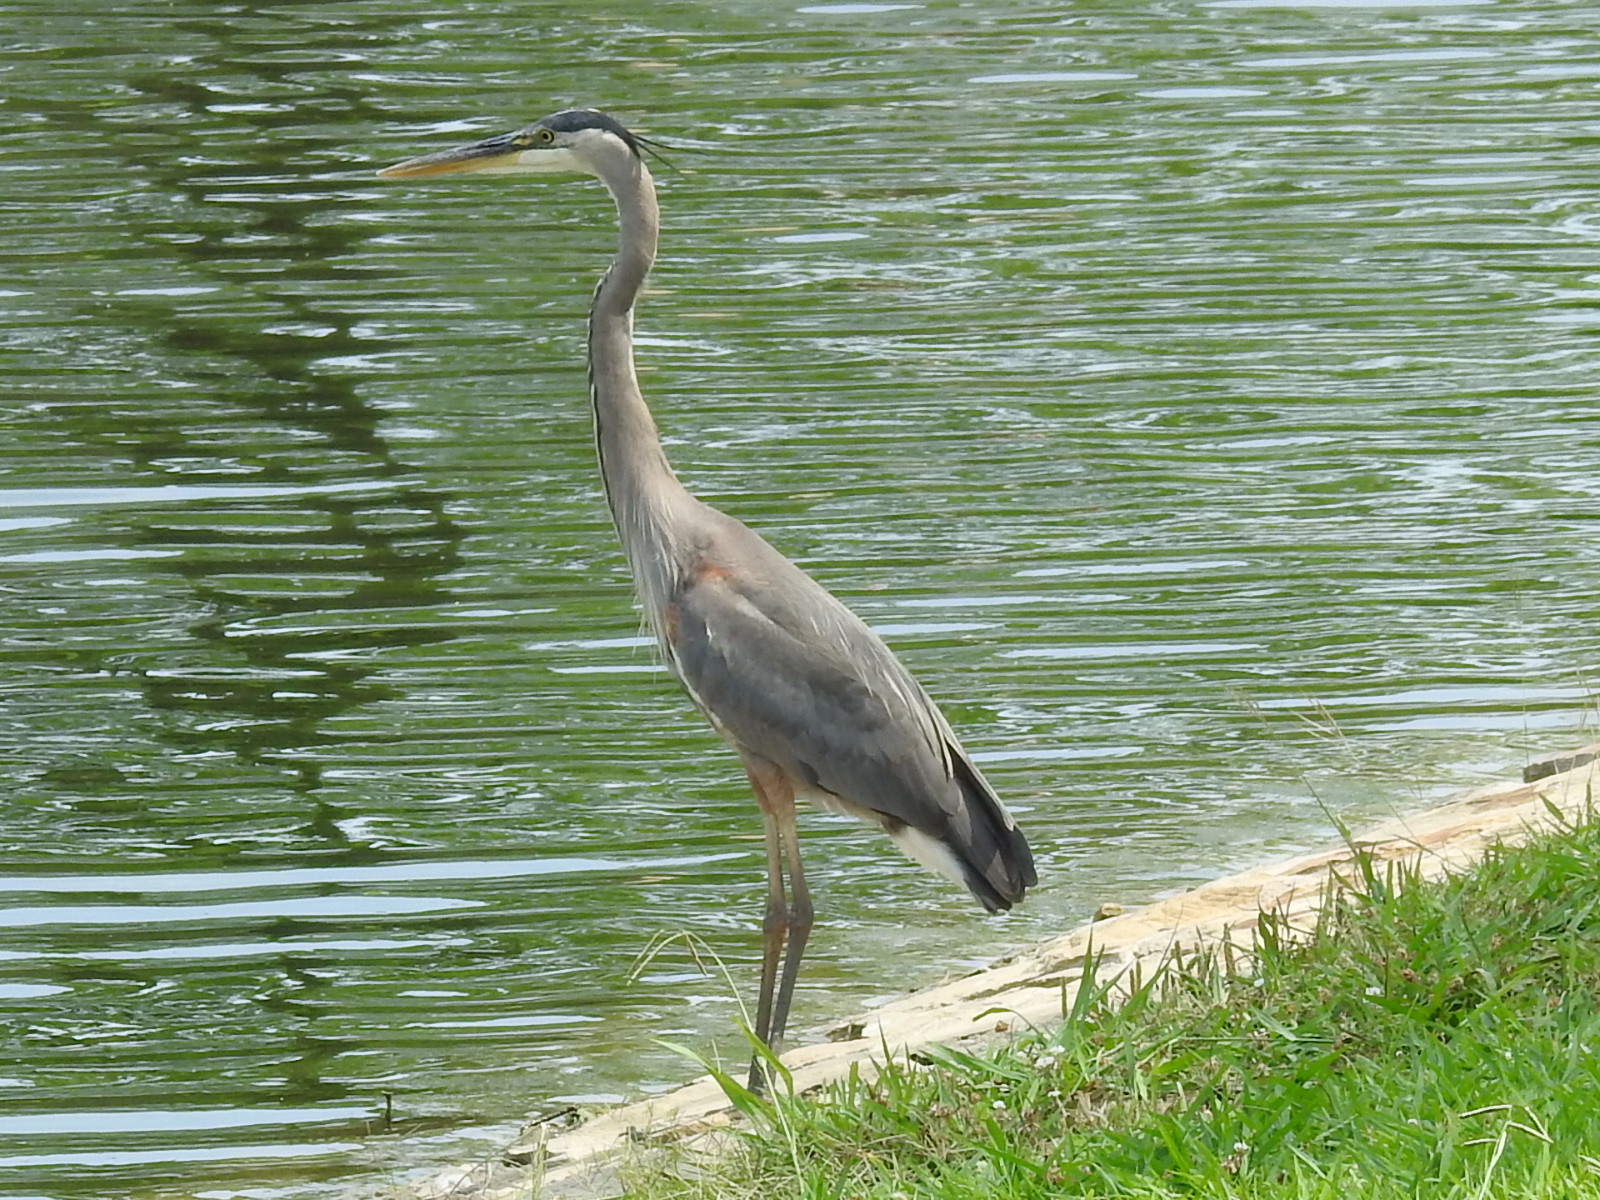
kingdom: Animalia
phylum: Chordata
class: Aves
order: Pelecaniformes
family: Ardeidae
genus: Ardea
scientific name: Ardea herodias
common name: Great blue heron
